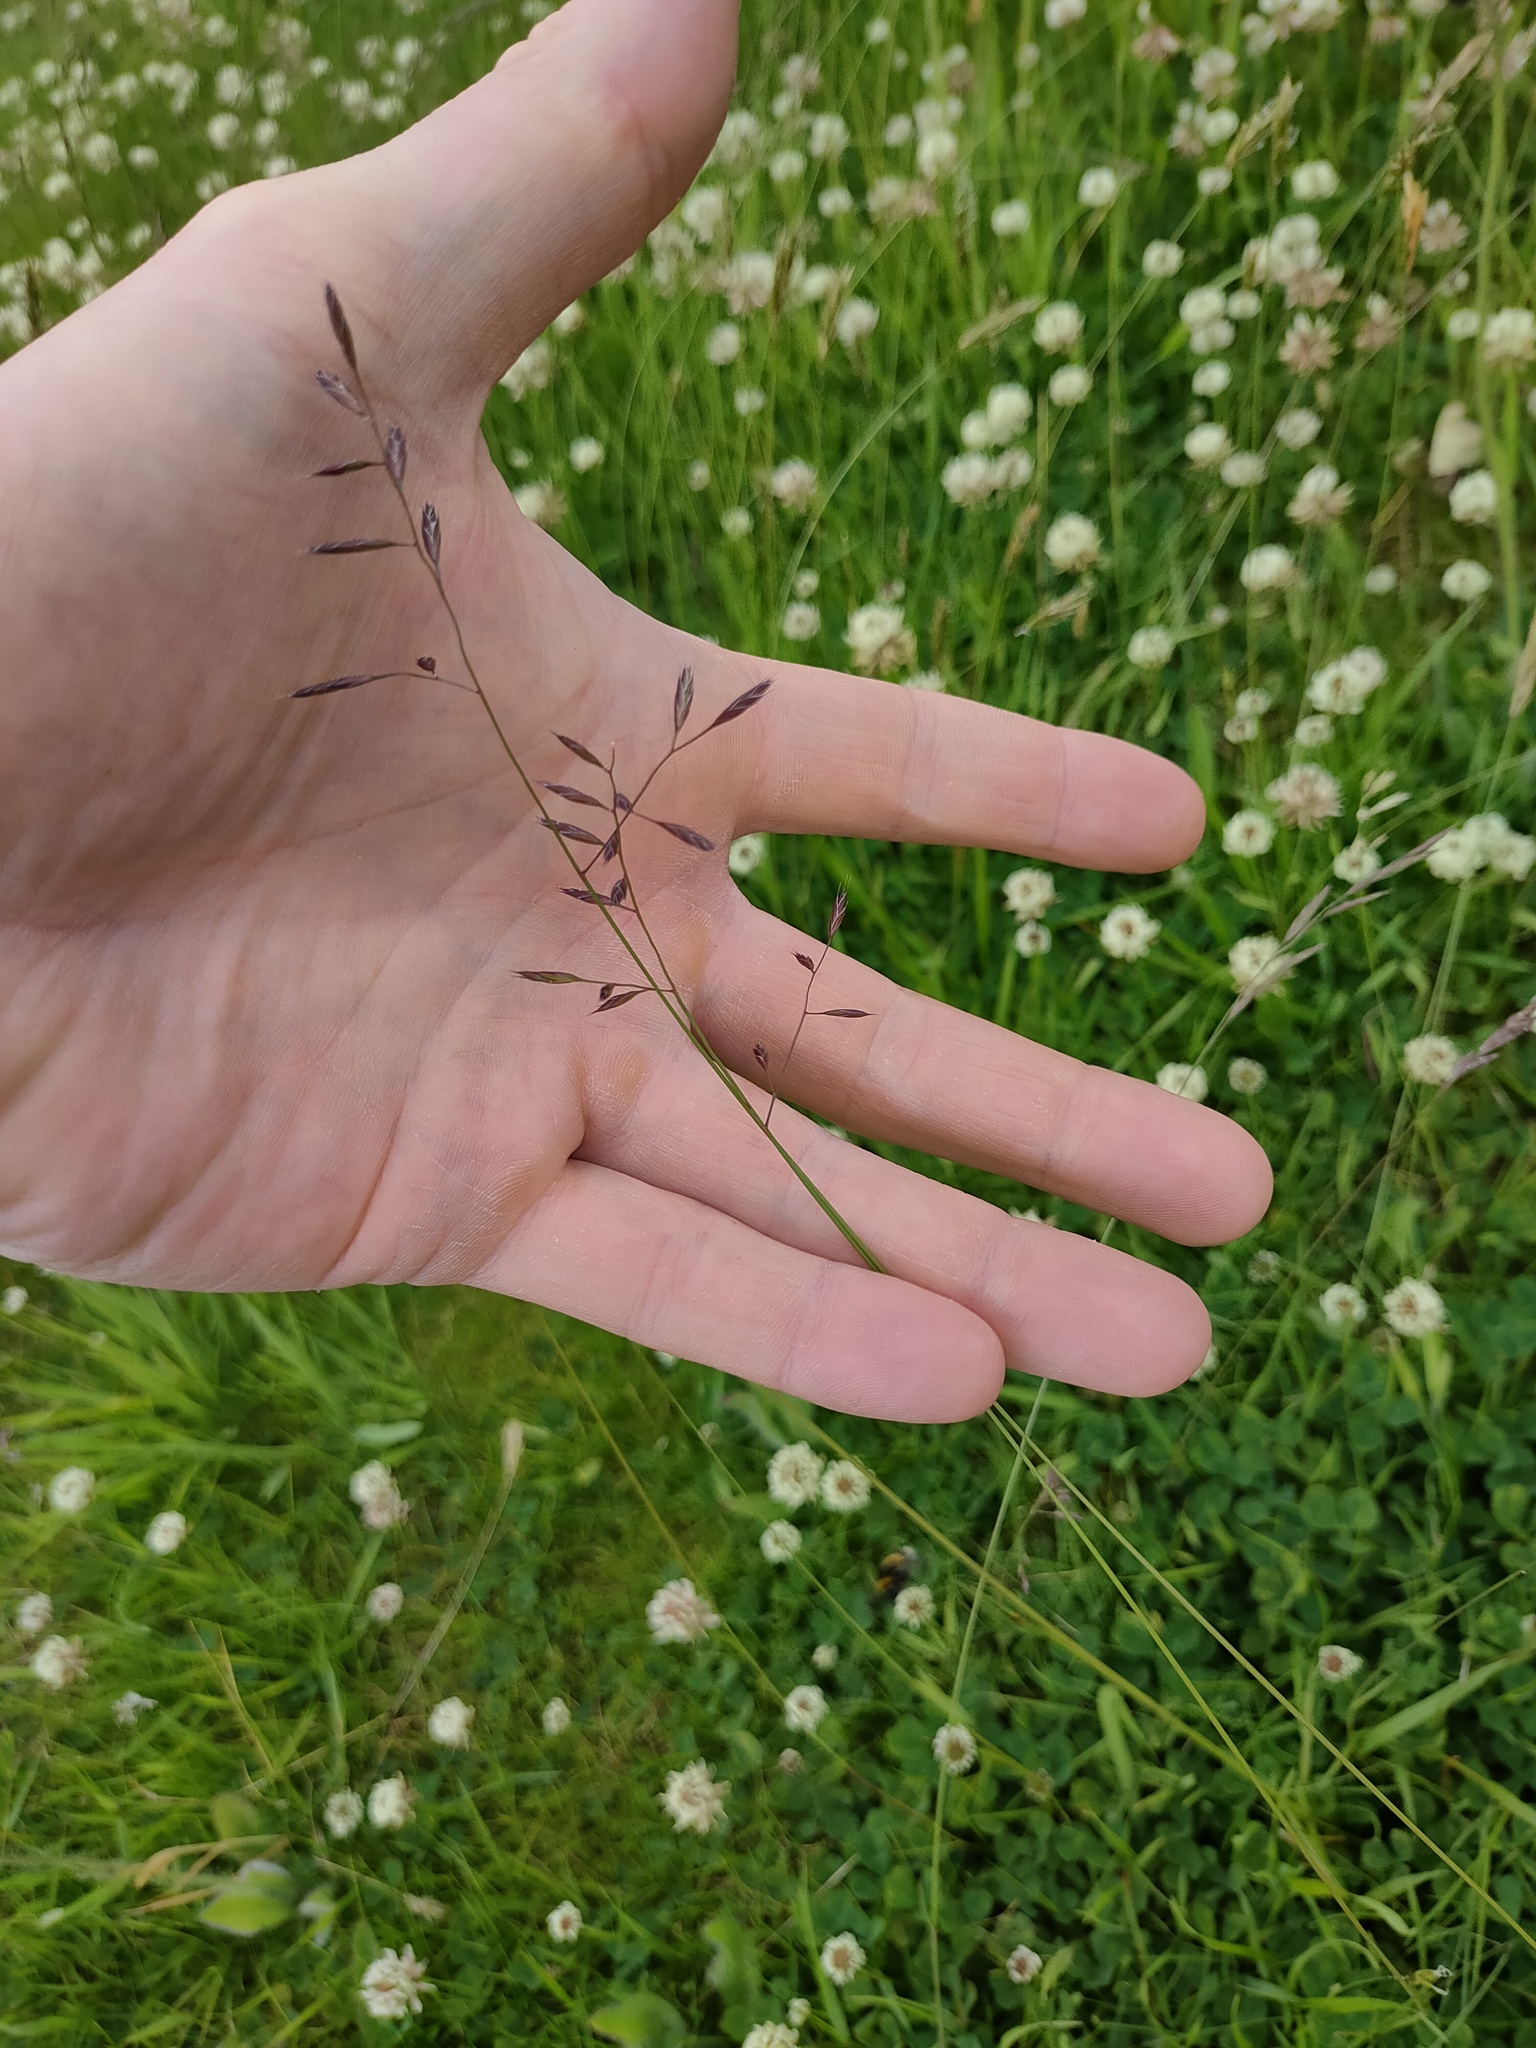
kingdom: Plantae
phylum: Tracheophyta
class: Liliopsida
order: Poales
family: Poaceae
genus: Festuca
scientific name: Festuca rubra
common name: Red fescue
